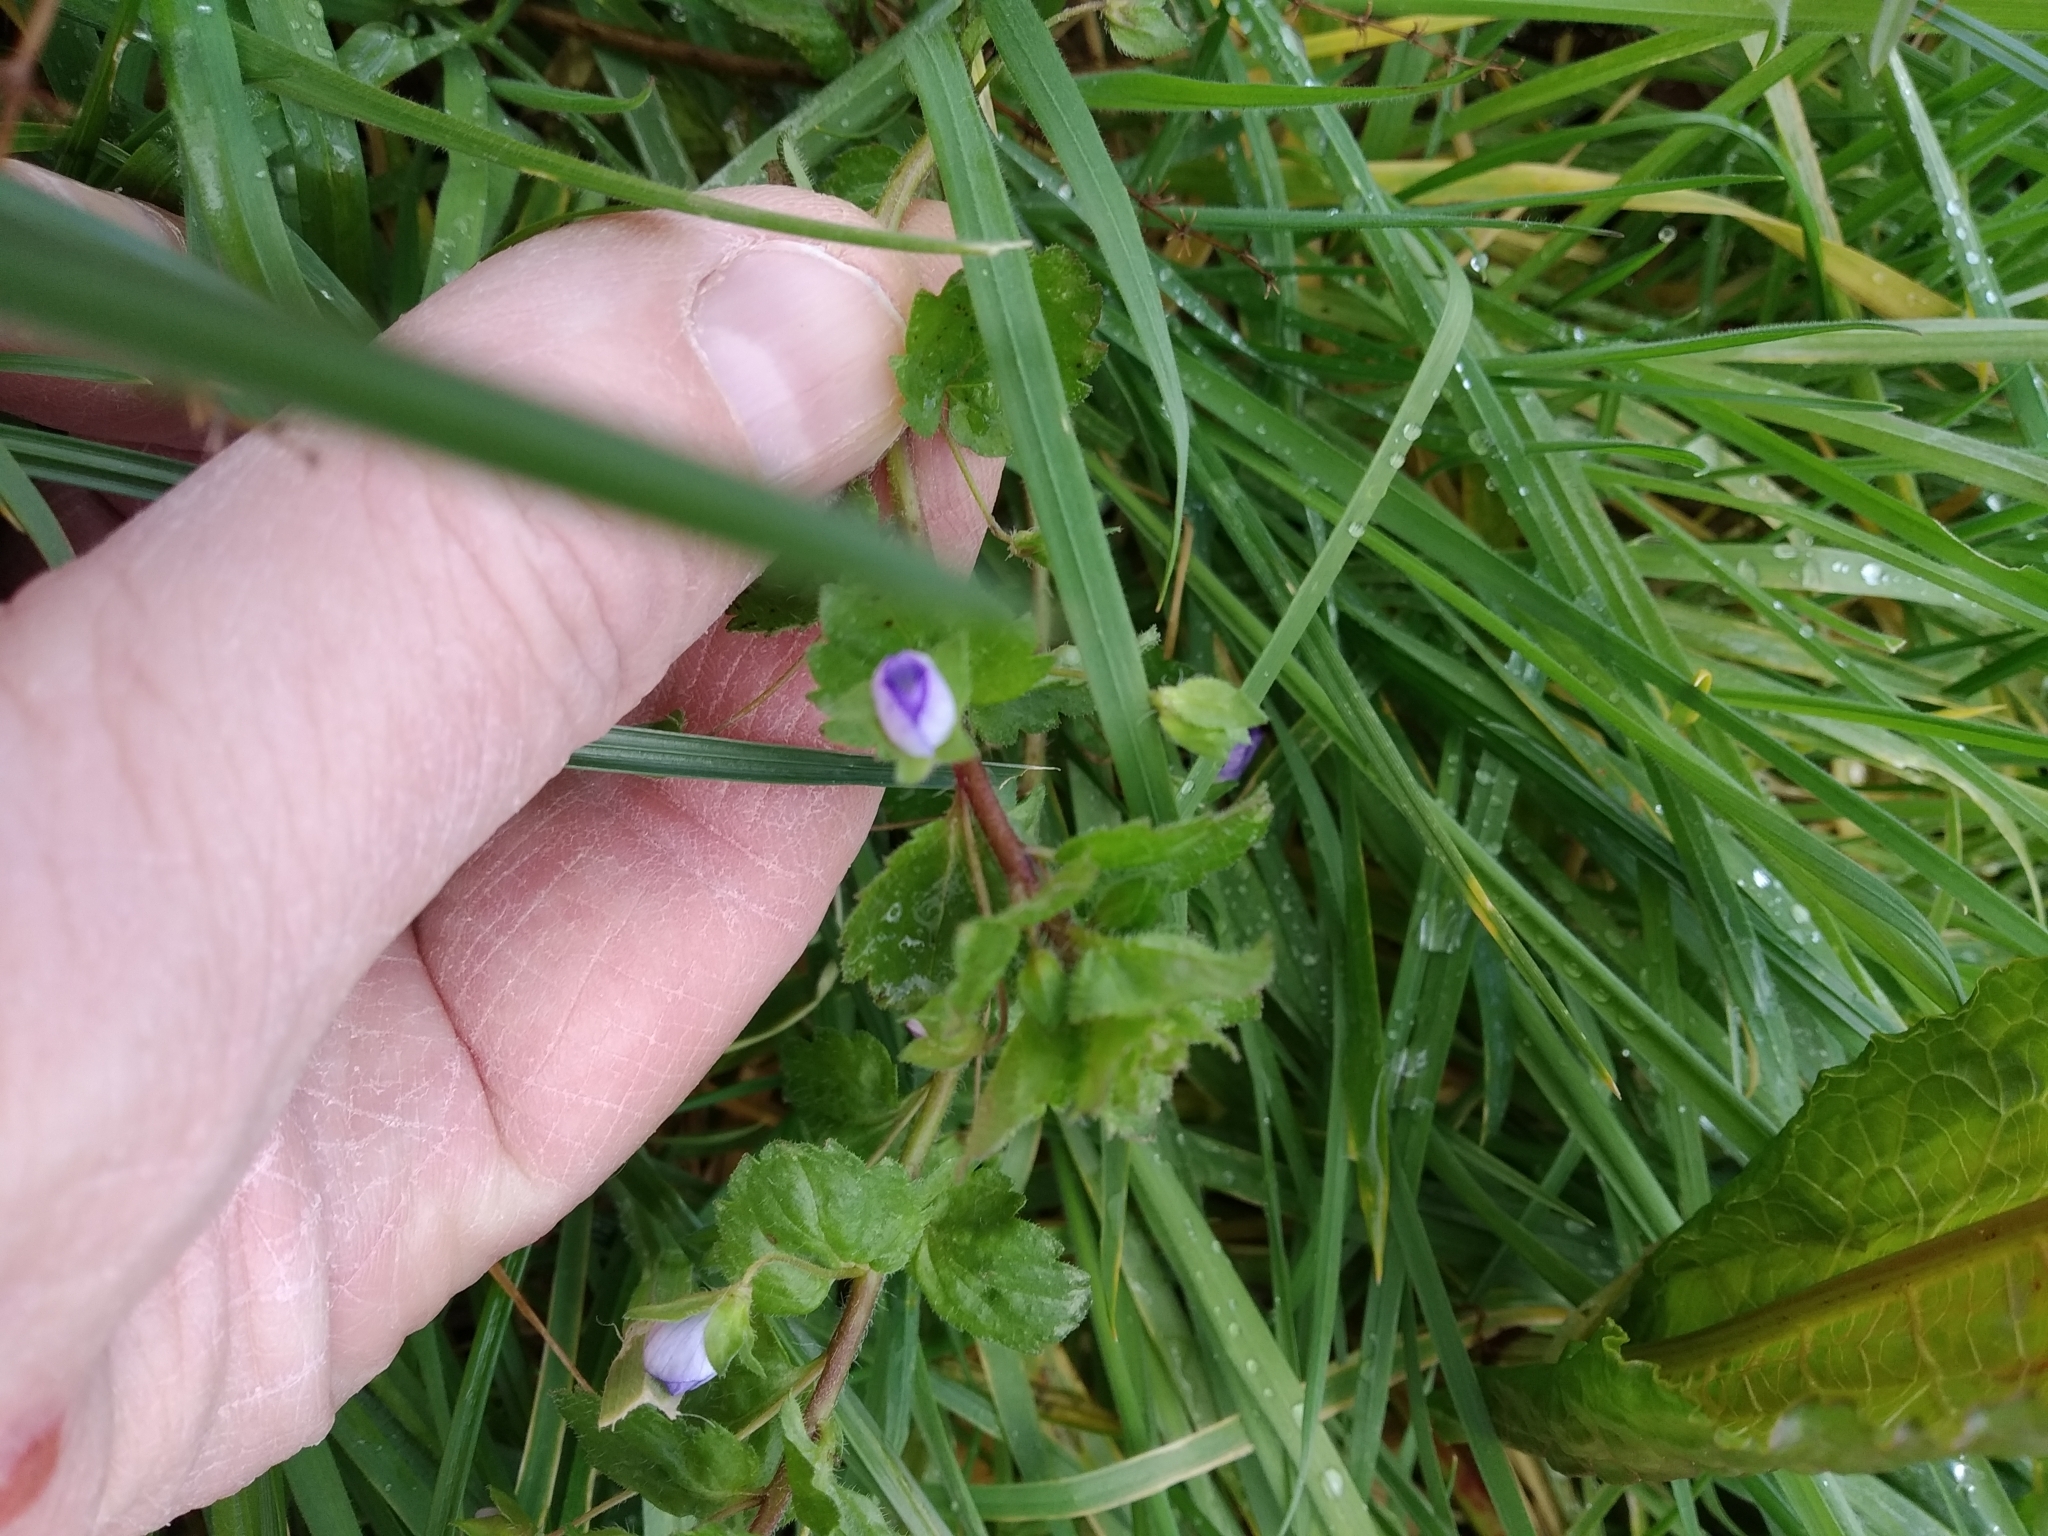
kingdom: Plantae
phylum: Tracheophyta
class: Magnoliopsida
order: Lamiales
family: Plantaginaceae
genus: Veronica
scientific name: Veronica persica
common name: Common field-speedwell
